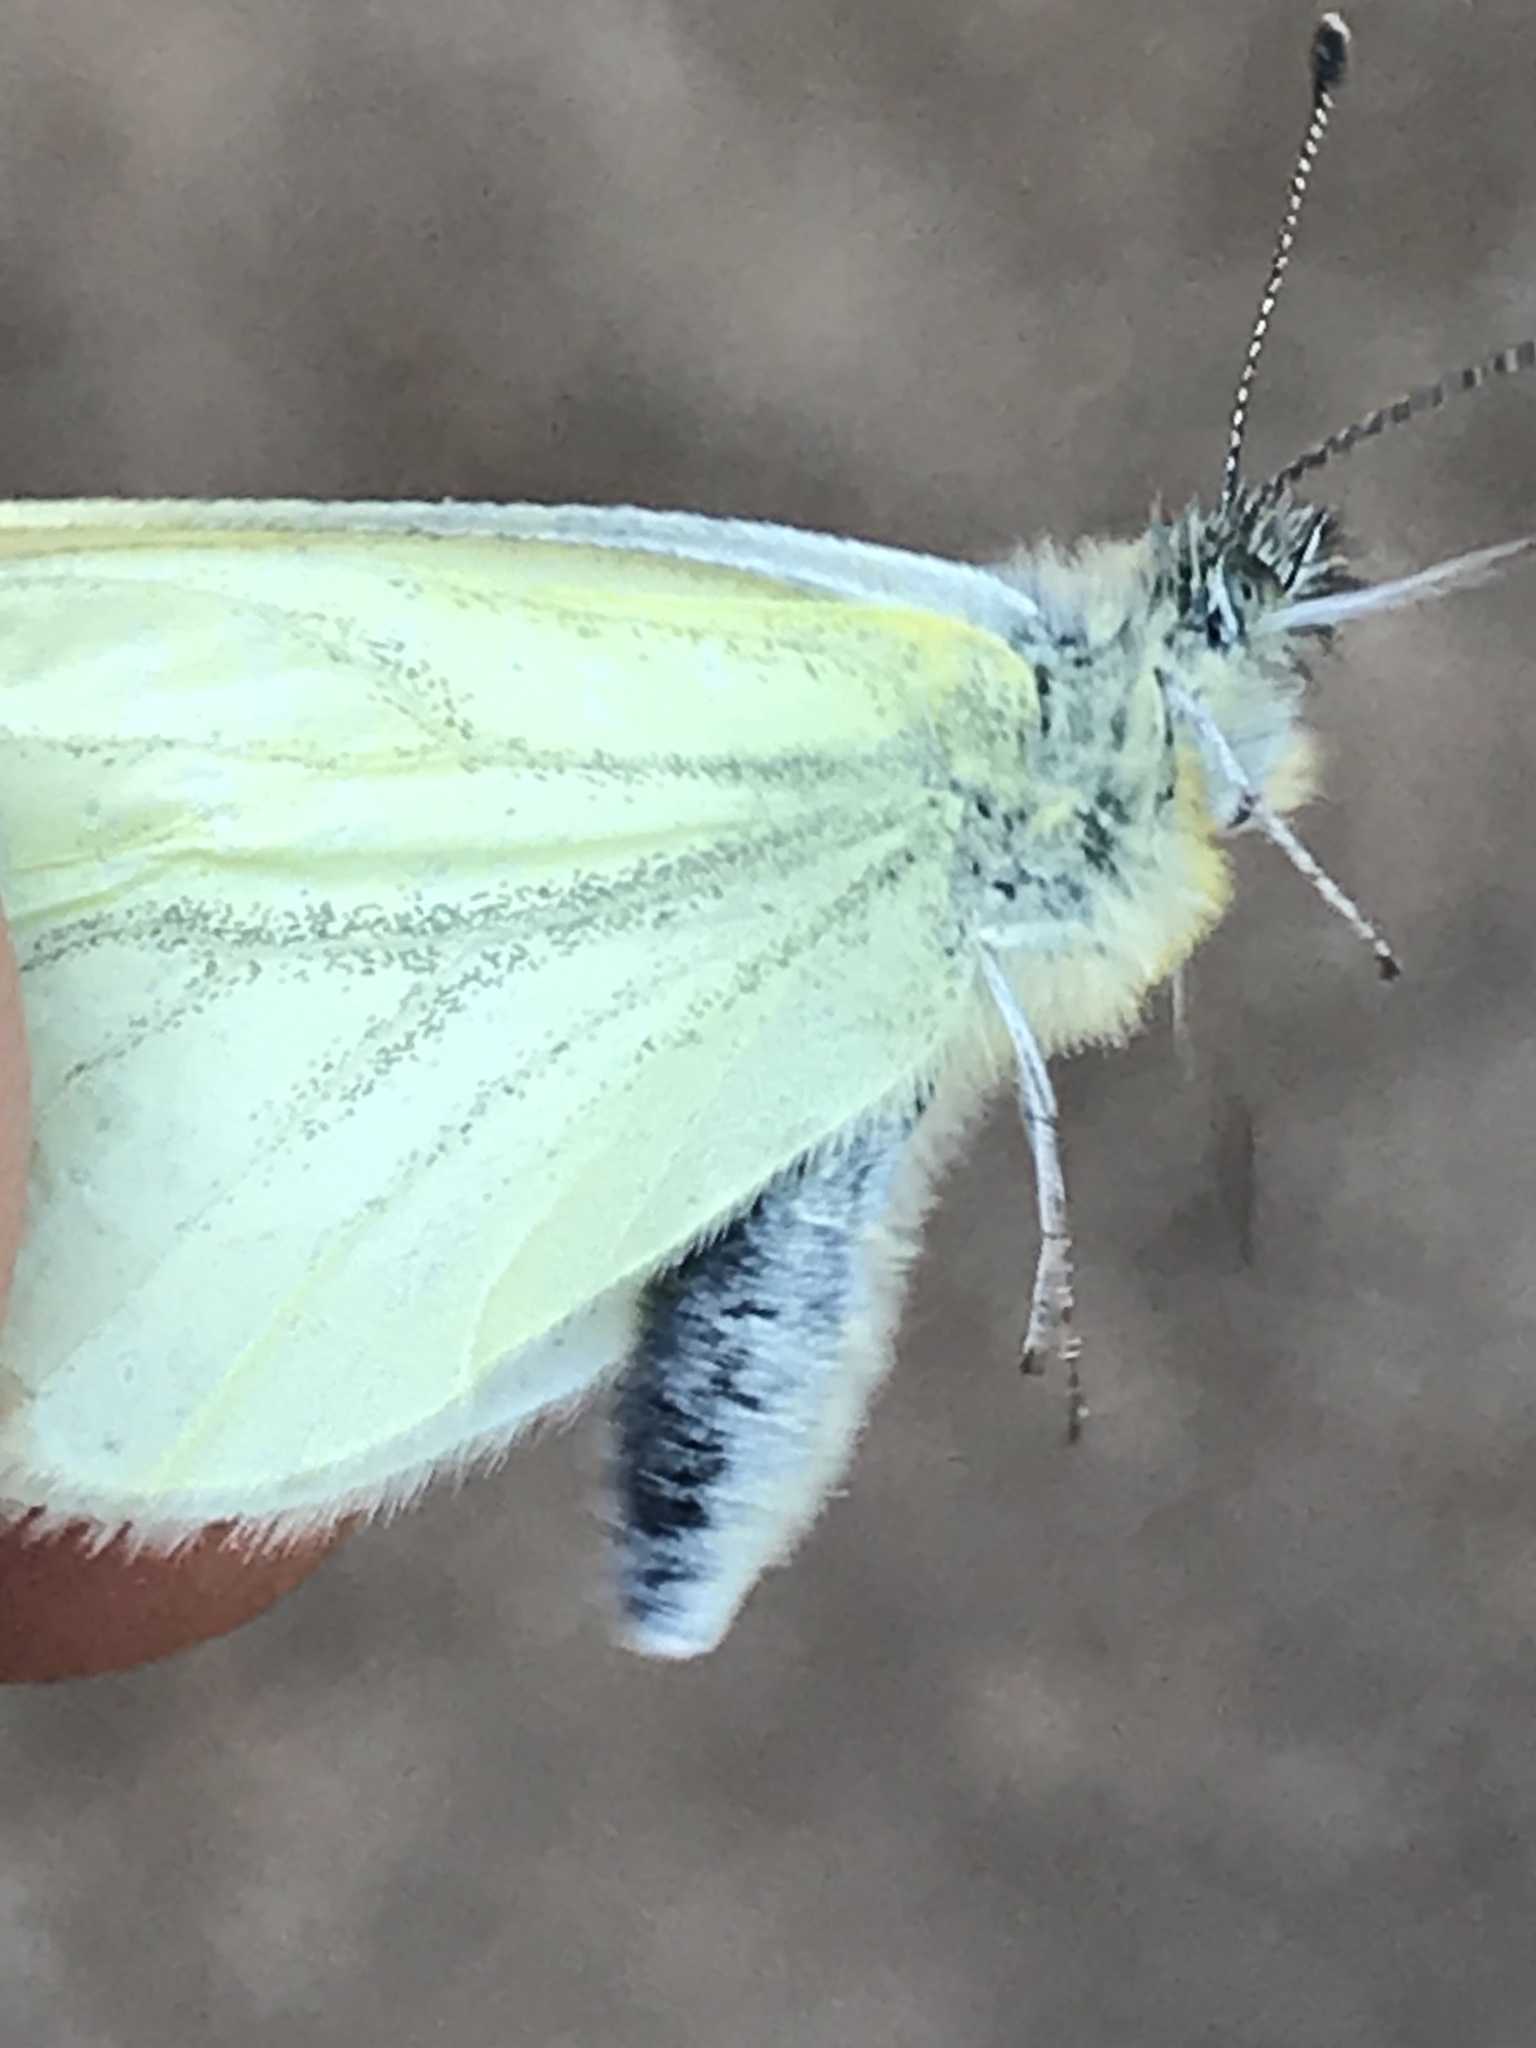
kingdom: Animalia
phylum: Arthropoda
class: Insecta
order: Lepidoptera
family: Pieridae
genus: Pieris
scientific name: Pieris marginalis
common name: Margined white
